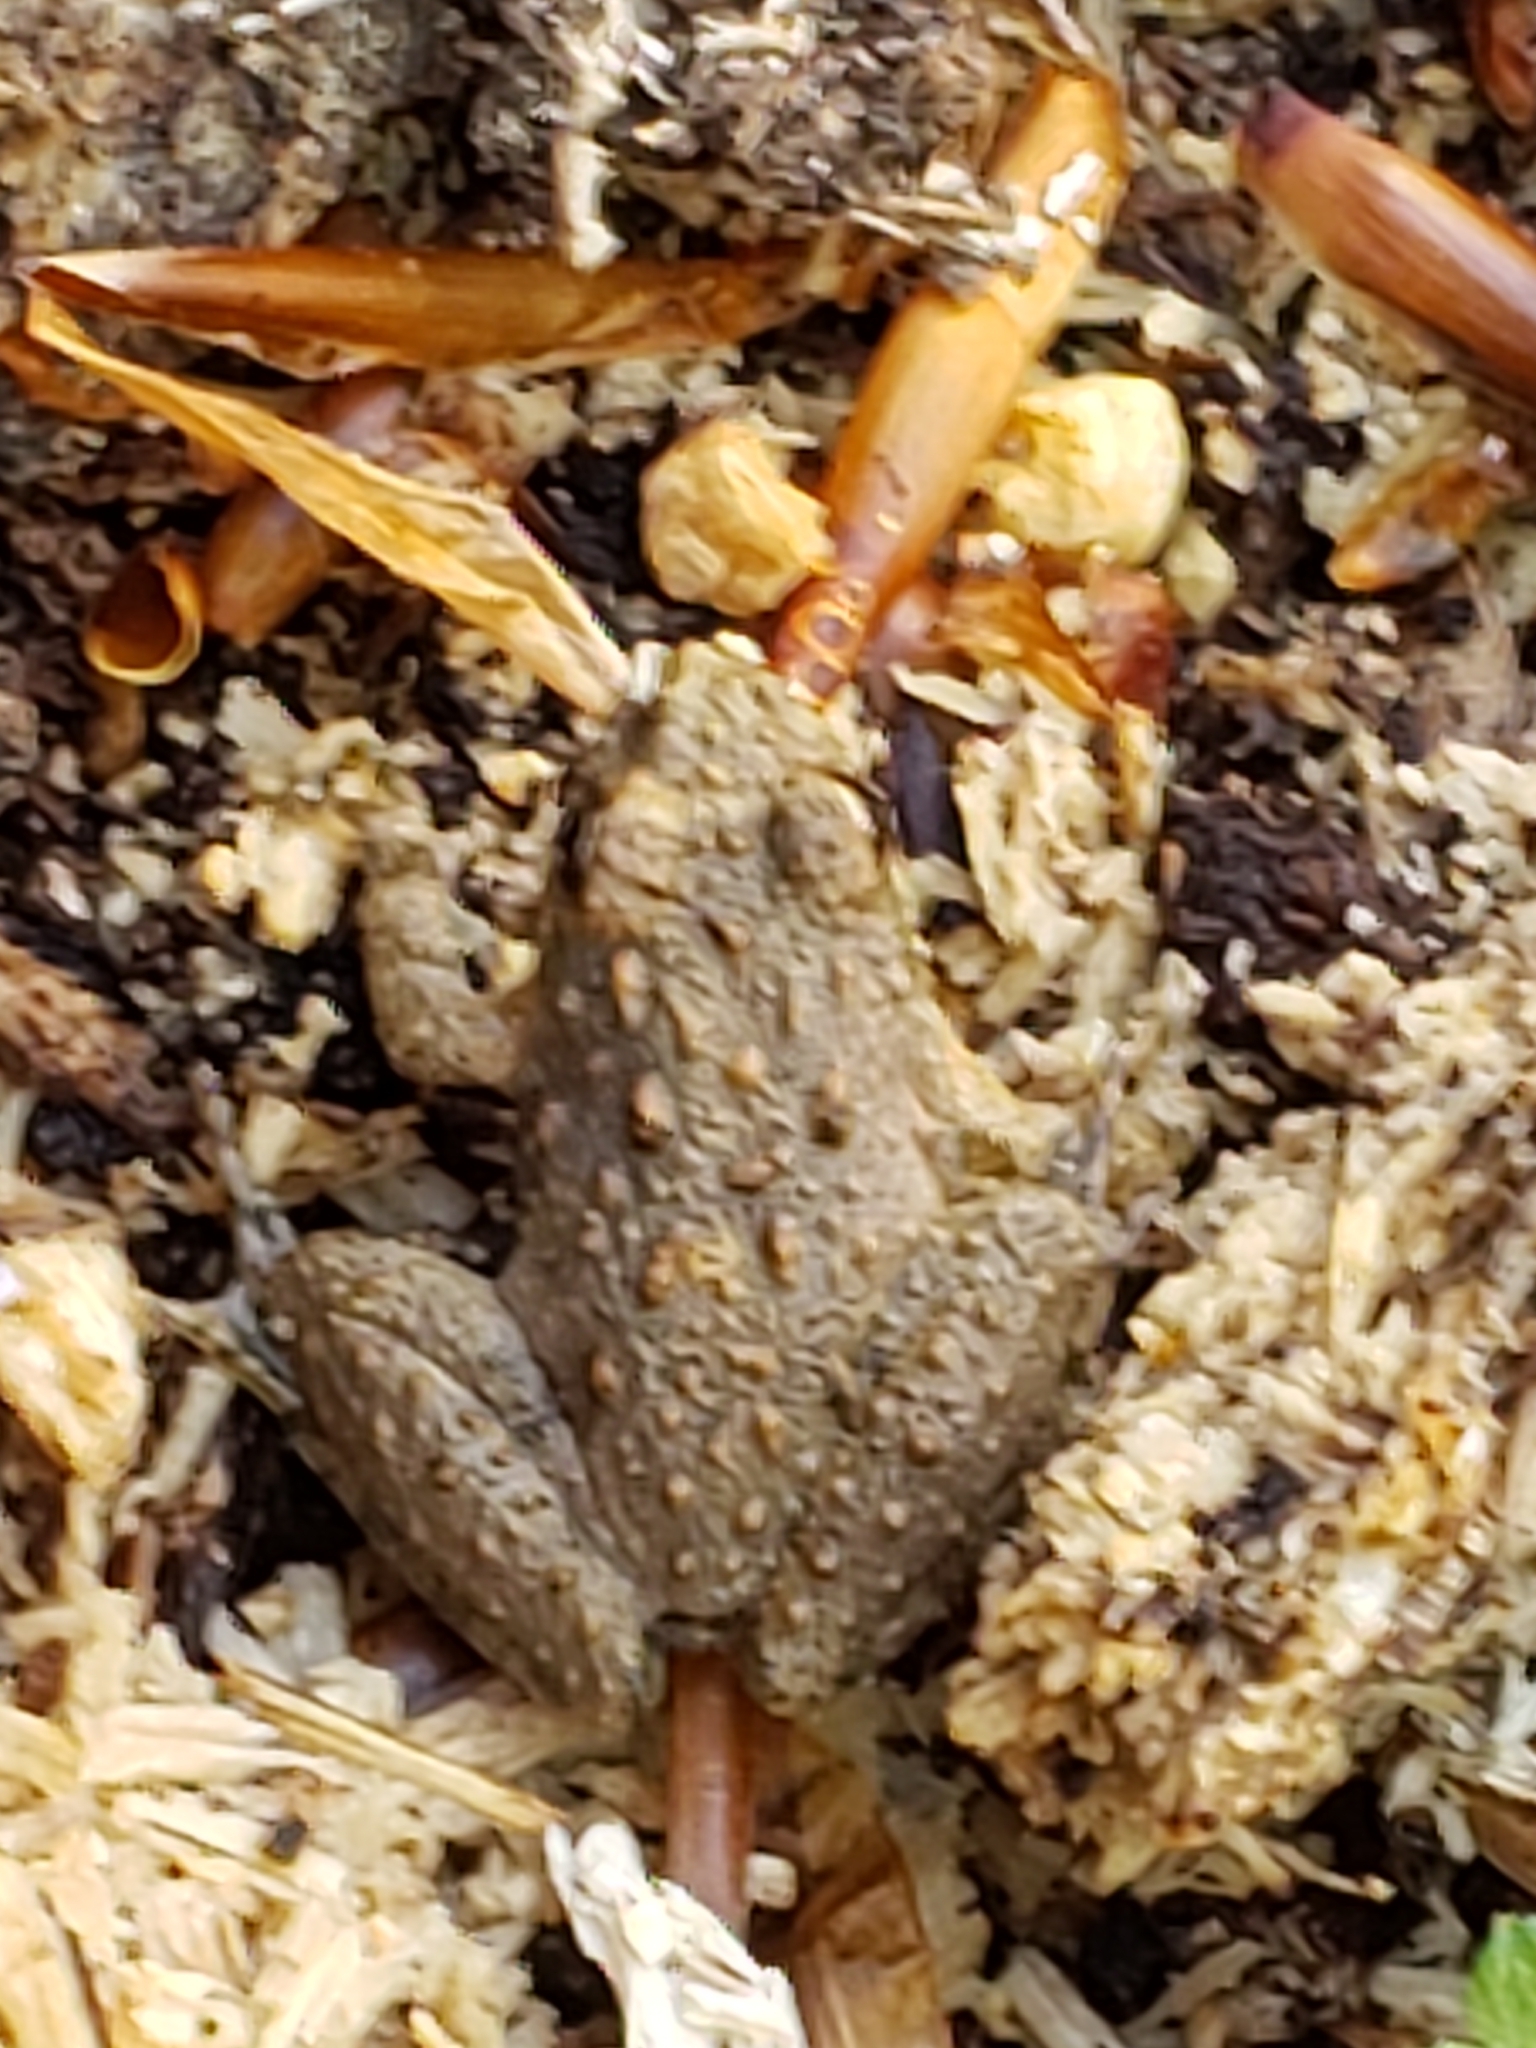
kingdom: Animalia
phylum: Chordata
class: Amphibia
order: Anura
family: Hylidae
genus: Acris
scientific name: Acris crepitans
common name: Northern cricket frog
